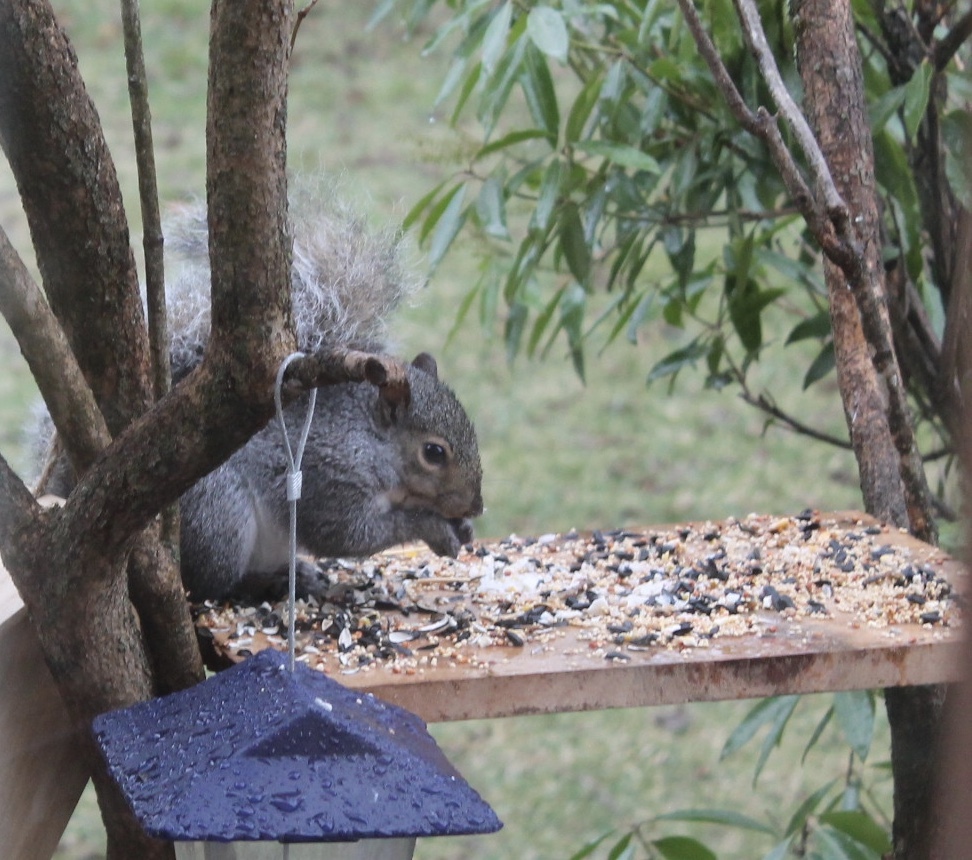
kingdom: Animalia
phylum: Chordata
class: Mammalia
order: Rodentia
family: Sciuridae
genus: Sciurus
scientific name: Sciurus carolinensis
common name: Eastern gray squirrel
